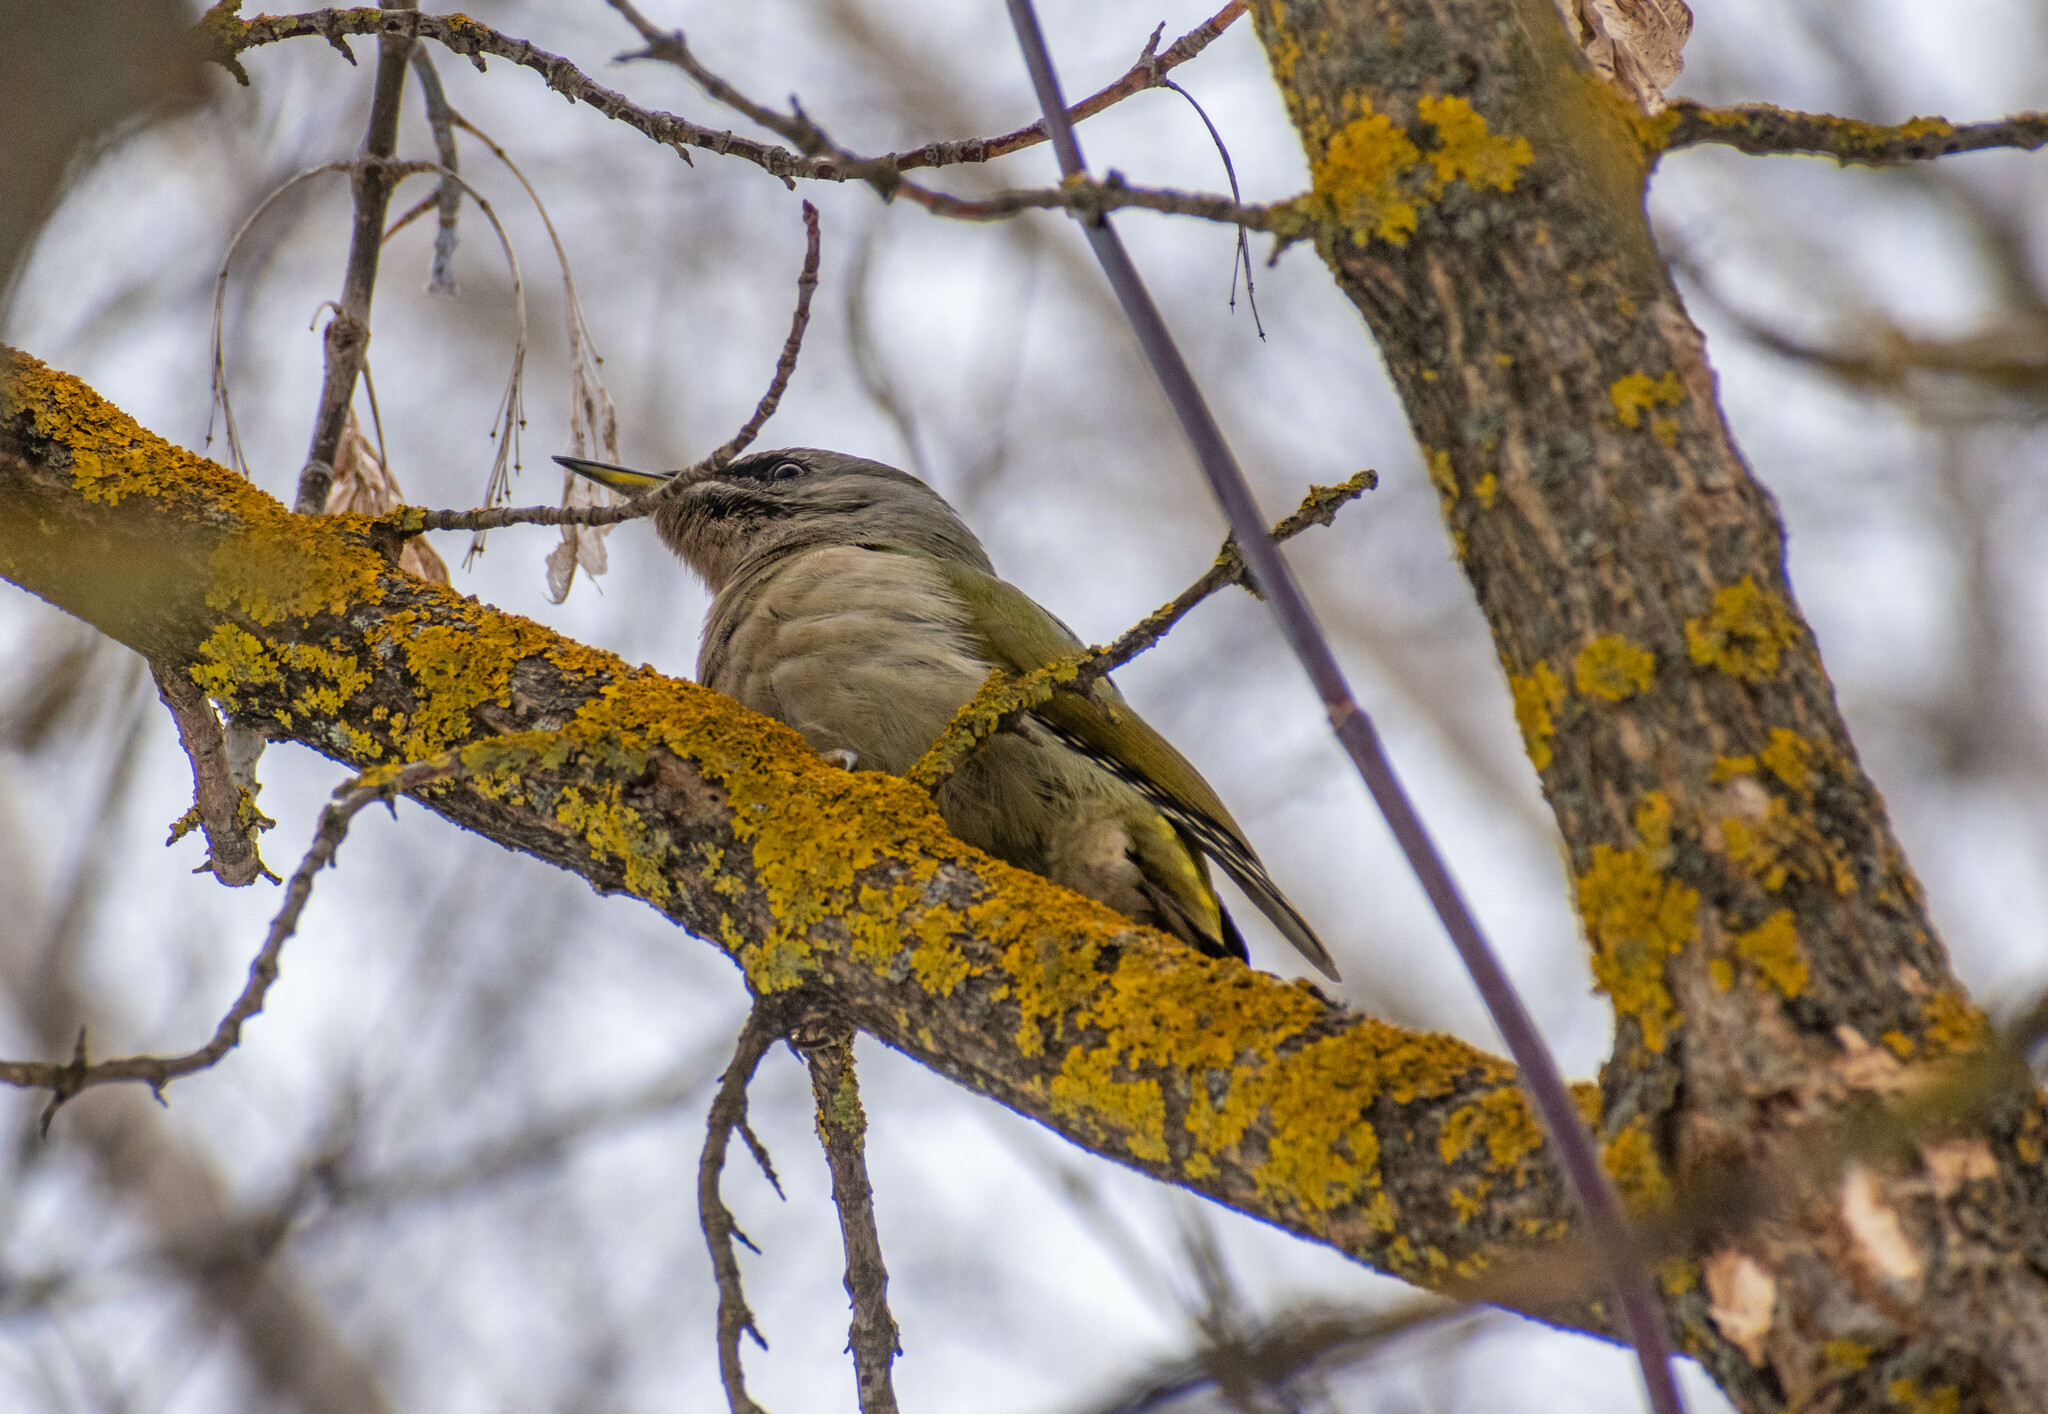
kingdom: Animalia
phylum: Chordata
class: Aves
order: Piciformes
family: Picidae
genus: Picus
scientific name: Picus canus
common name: Grey-headed woodpecker
